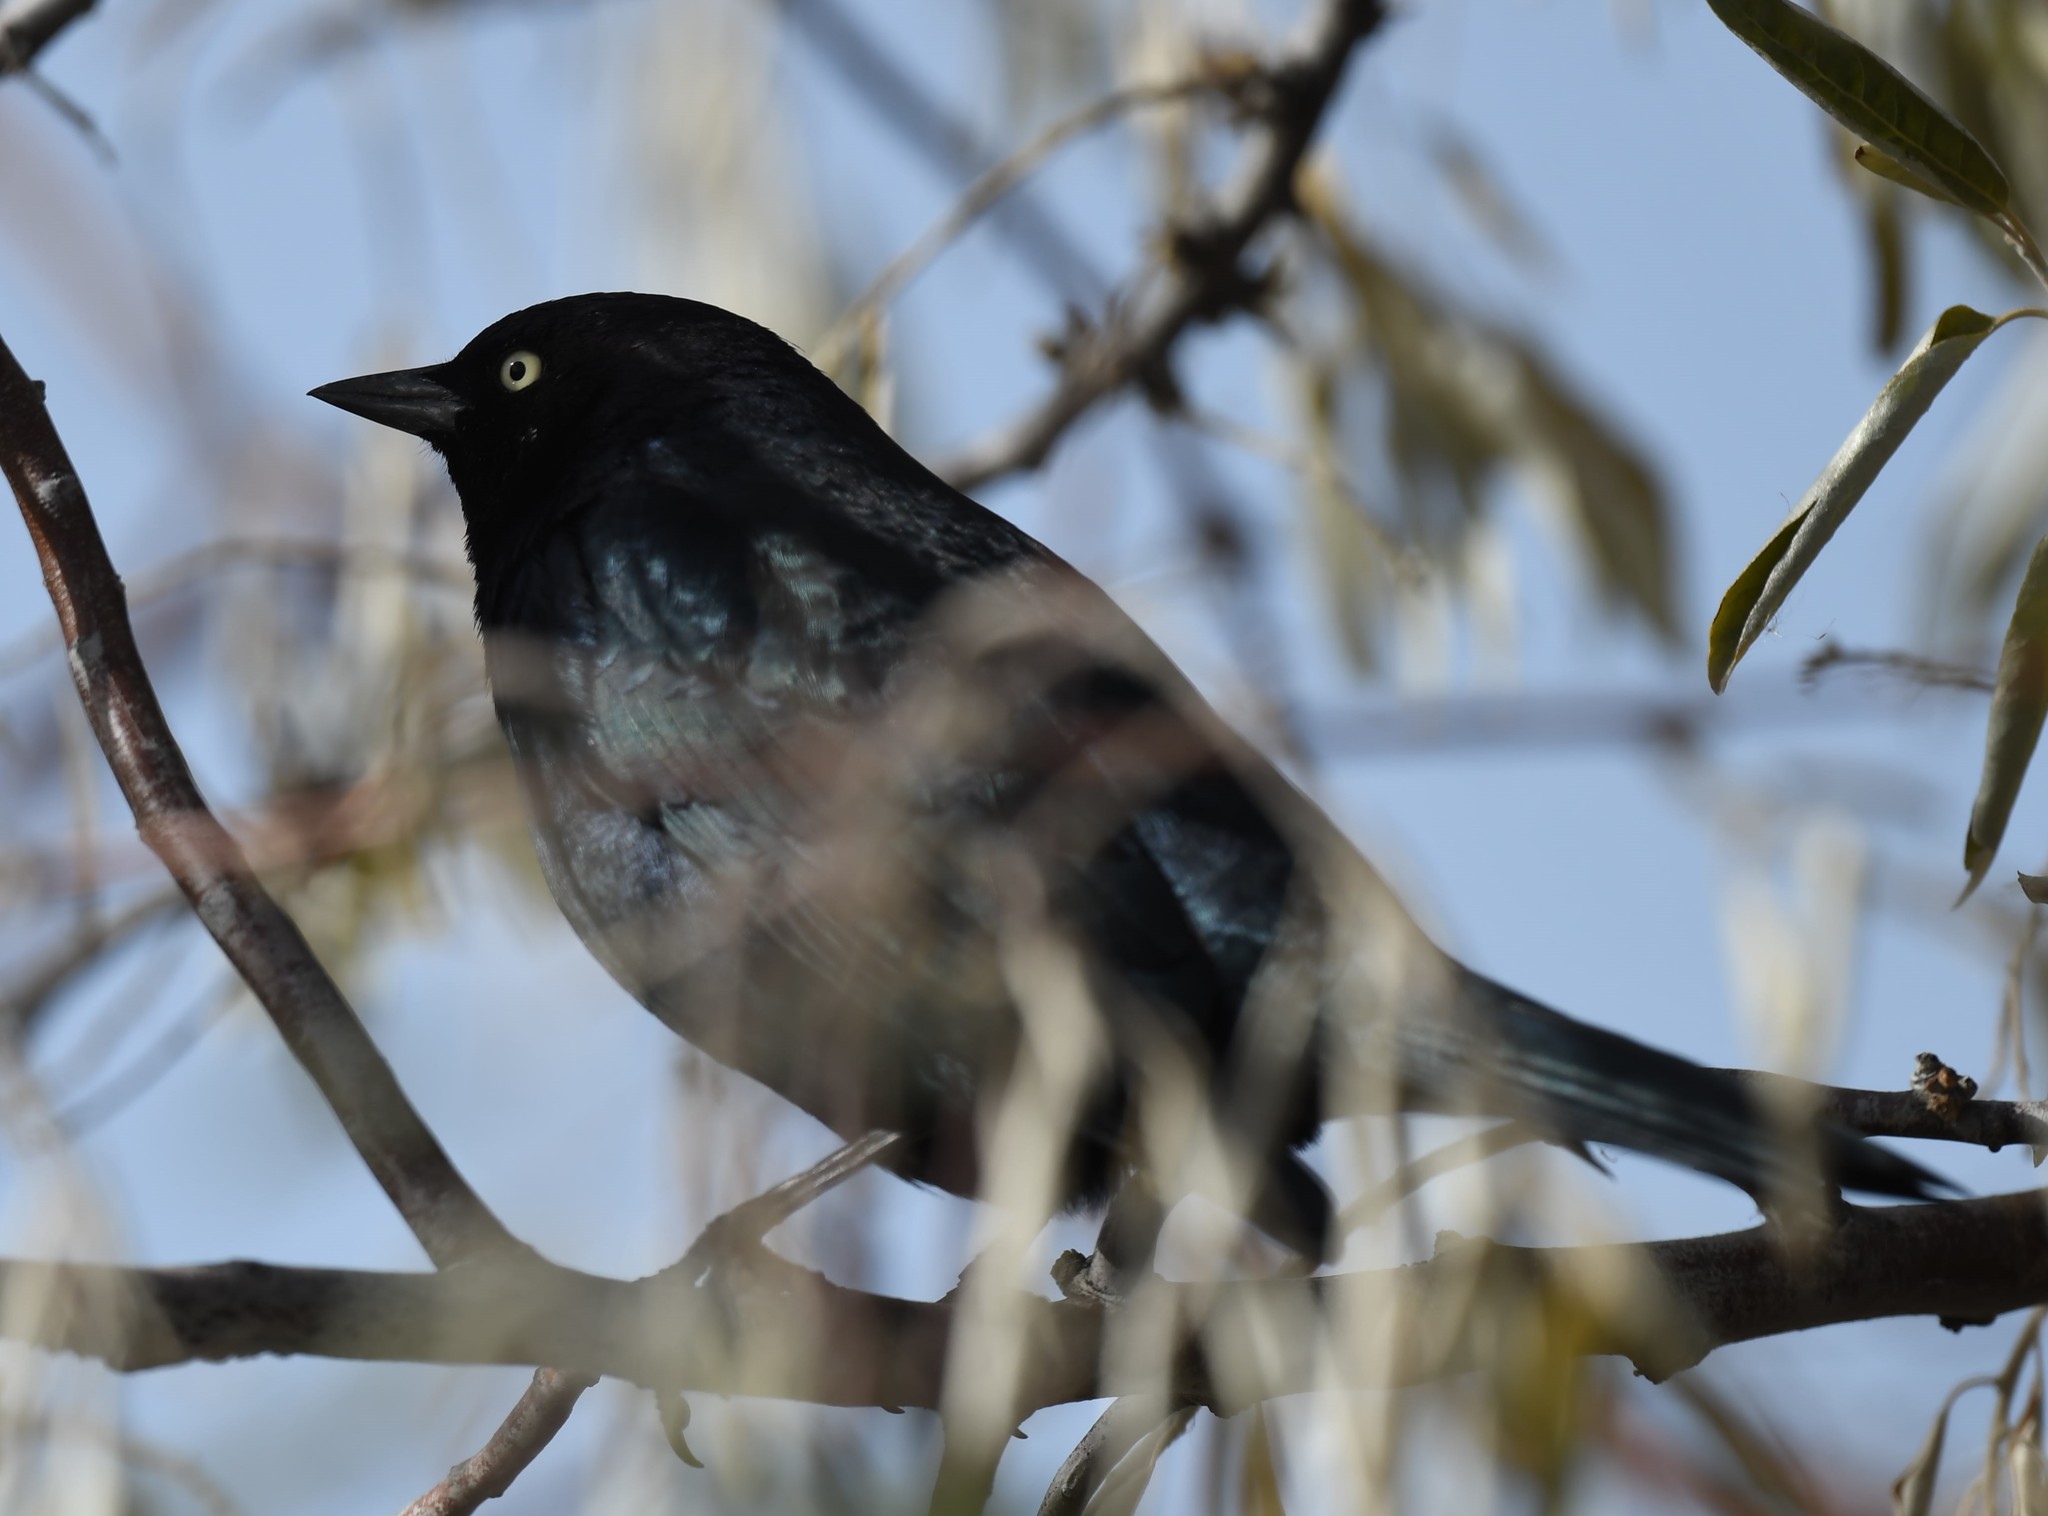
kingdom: Animalia
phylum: Chordata
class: Aves
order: Passeriformes
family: Icteridae
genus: Euphagus
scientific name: Euphagus cyanocephalus
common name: Brewer's blackbird
